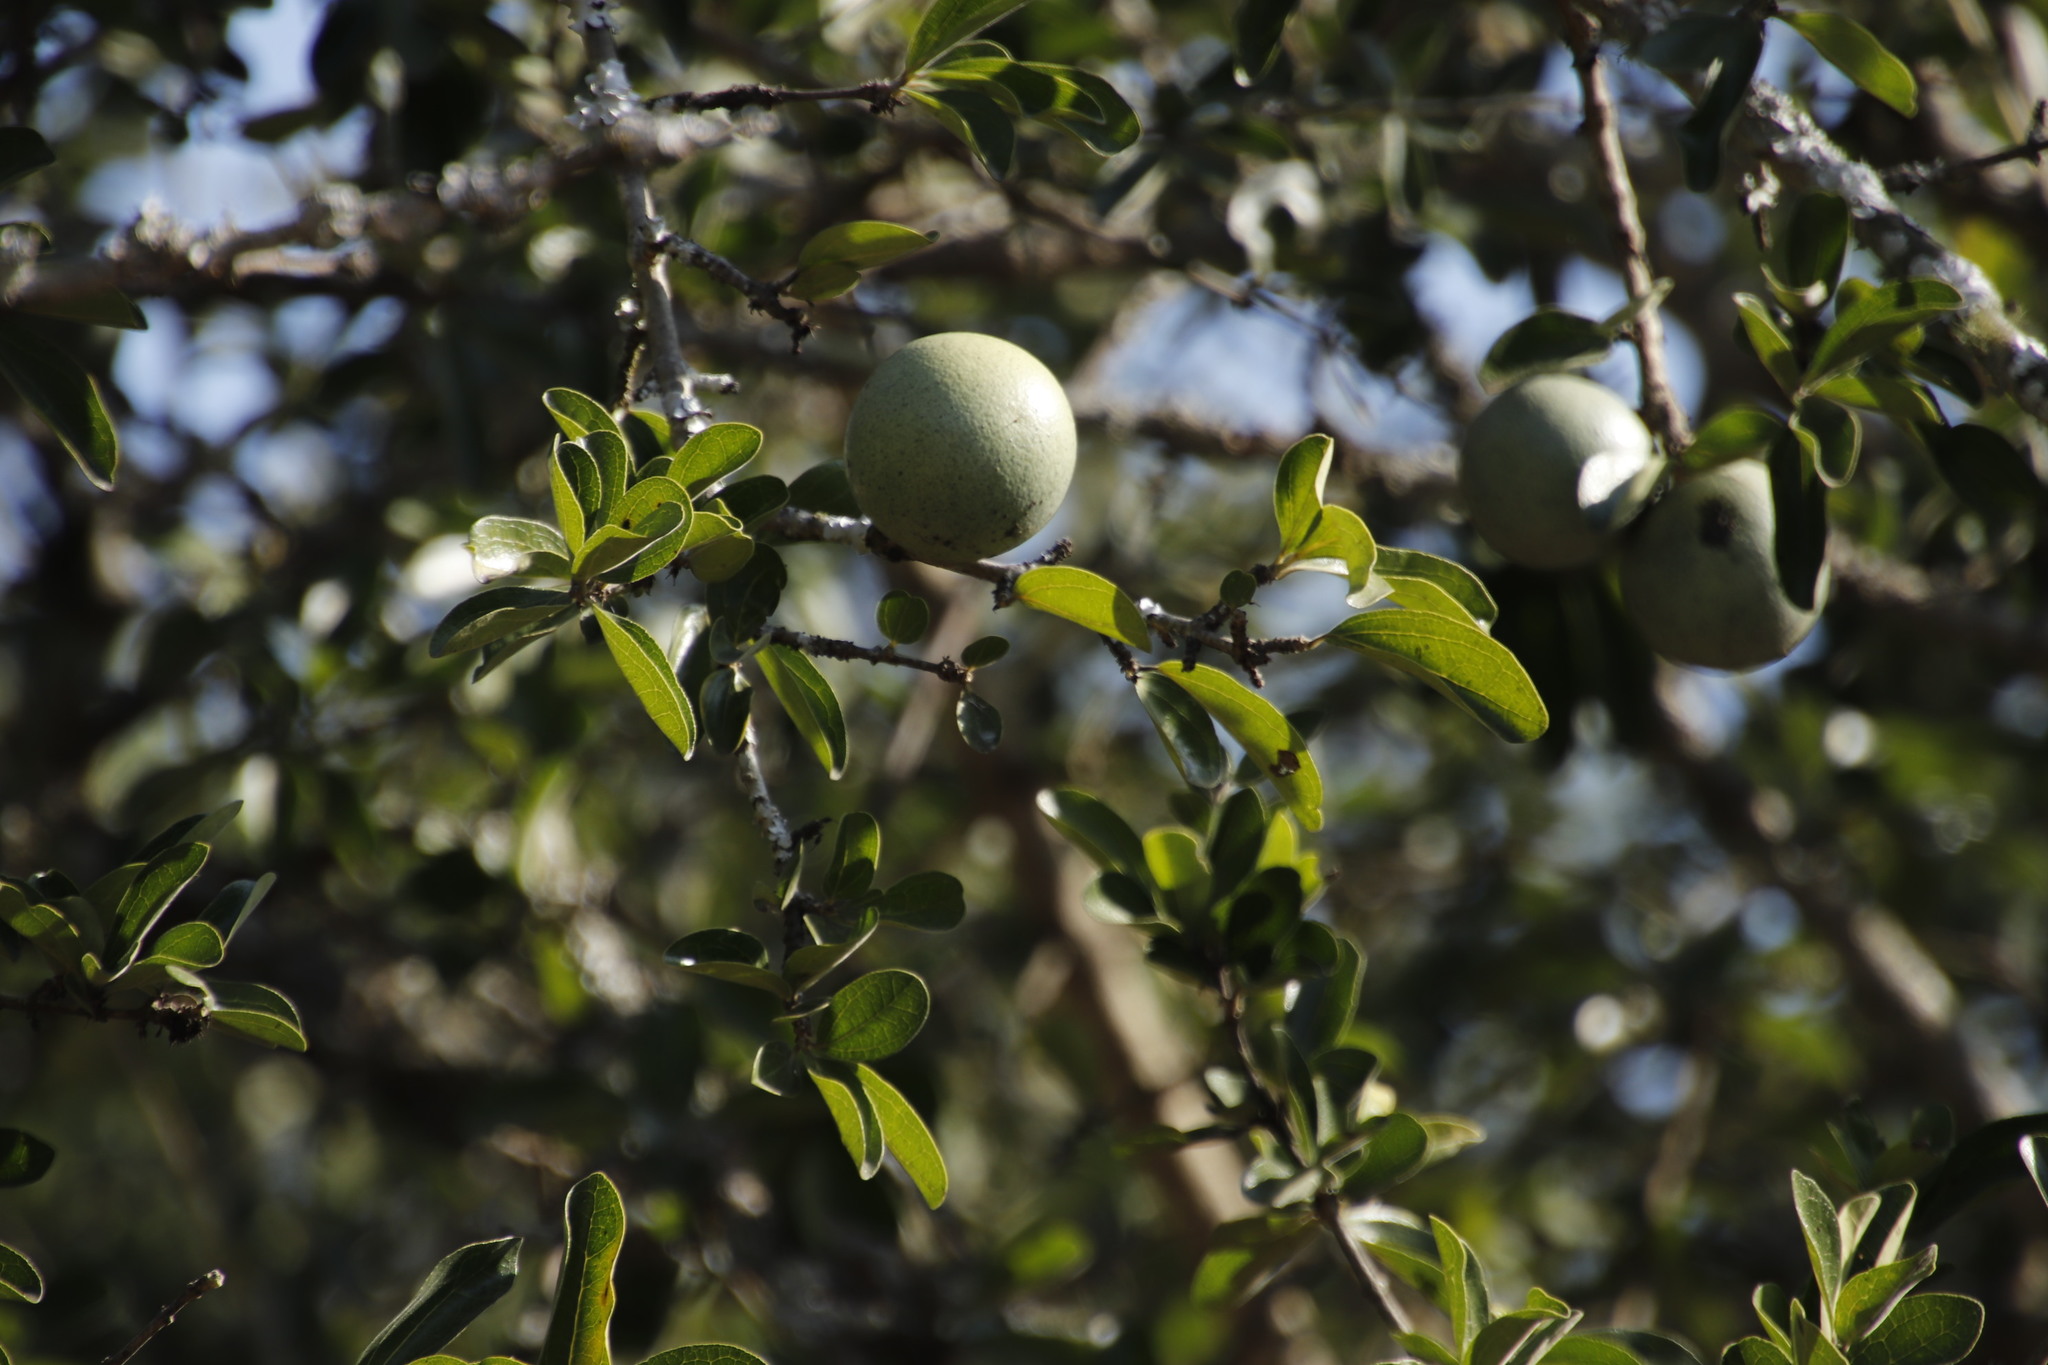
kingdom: Plantae
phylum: Tracheophyta
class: Magnoliopsida
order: Gentianales
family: Loganiaceae
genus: Strychnos
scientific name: Strychnos madagascariensis
